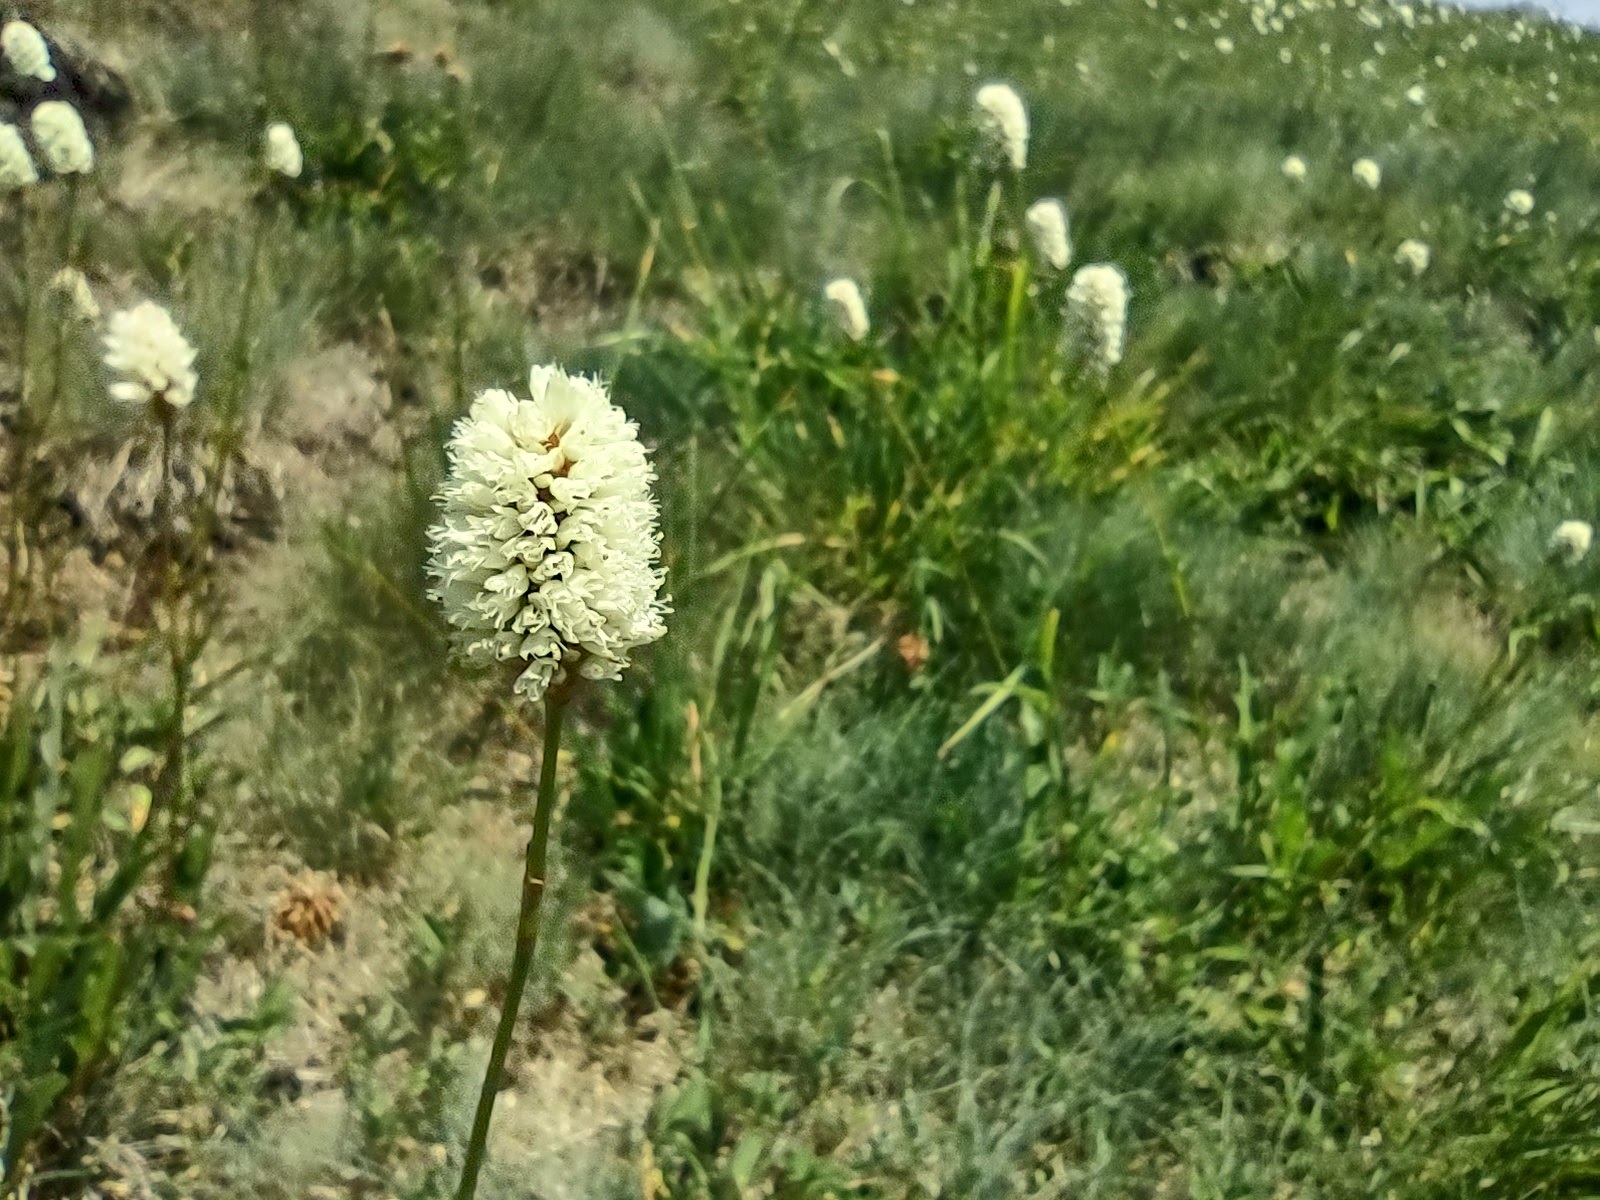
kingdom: Plantae
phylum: Tracheophyta
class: Magnoliopsida
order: Caryophyllales
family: Polygonaceae
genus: Bistorta
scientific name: Bistorta bistortoides
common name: American bistort
